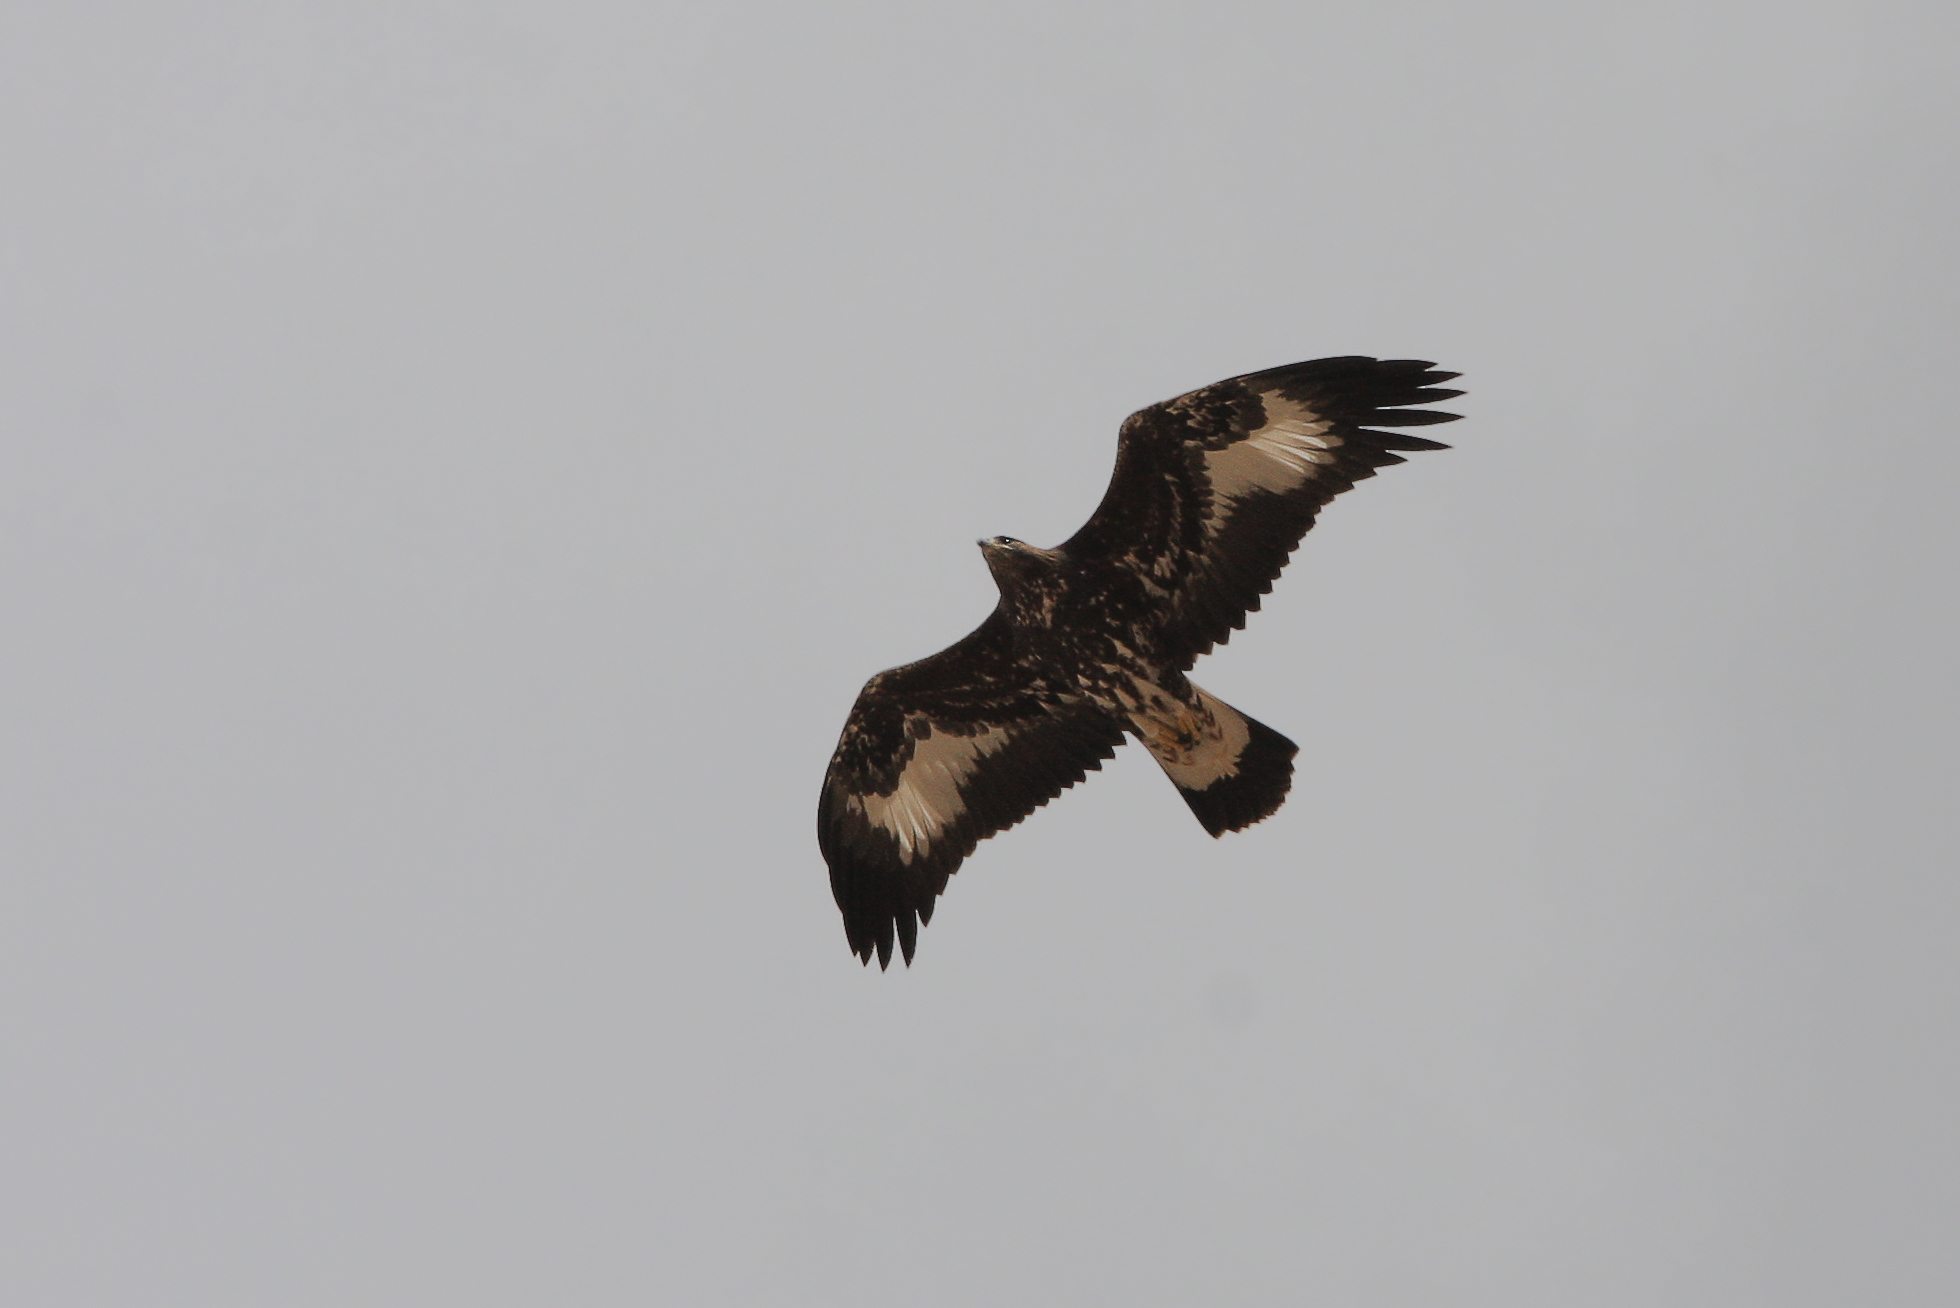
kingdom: Animalia
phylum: Chordata
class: Aves
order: Accipitriformes
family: Accipitridae
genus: Aquila
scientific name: Aquila chrysaetos
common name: Golden eagle
